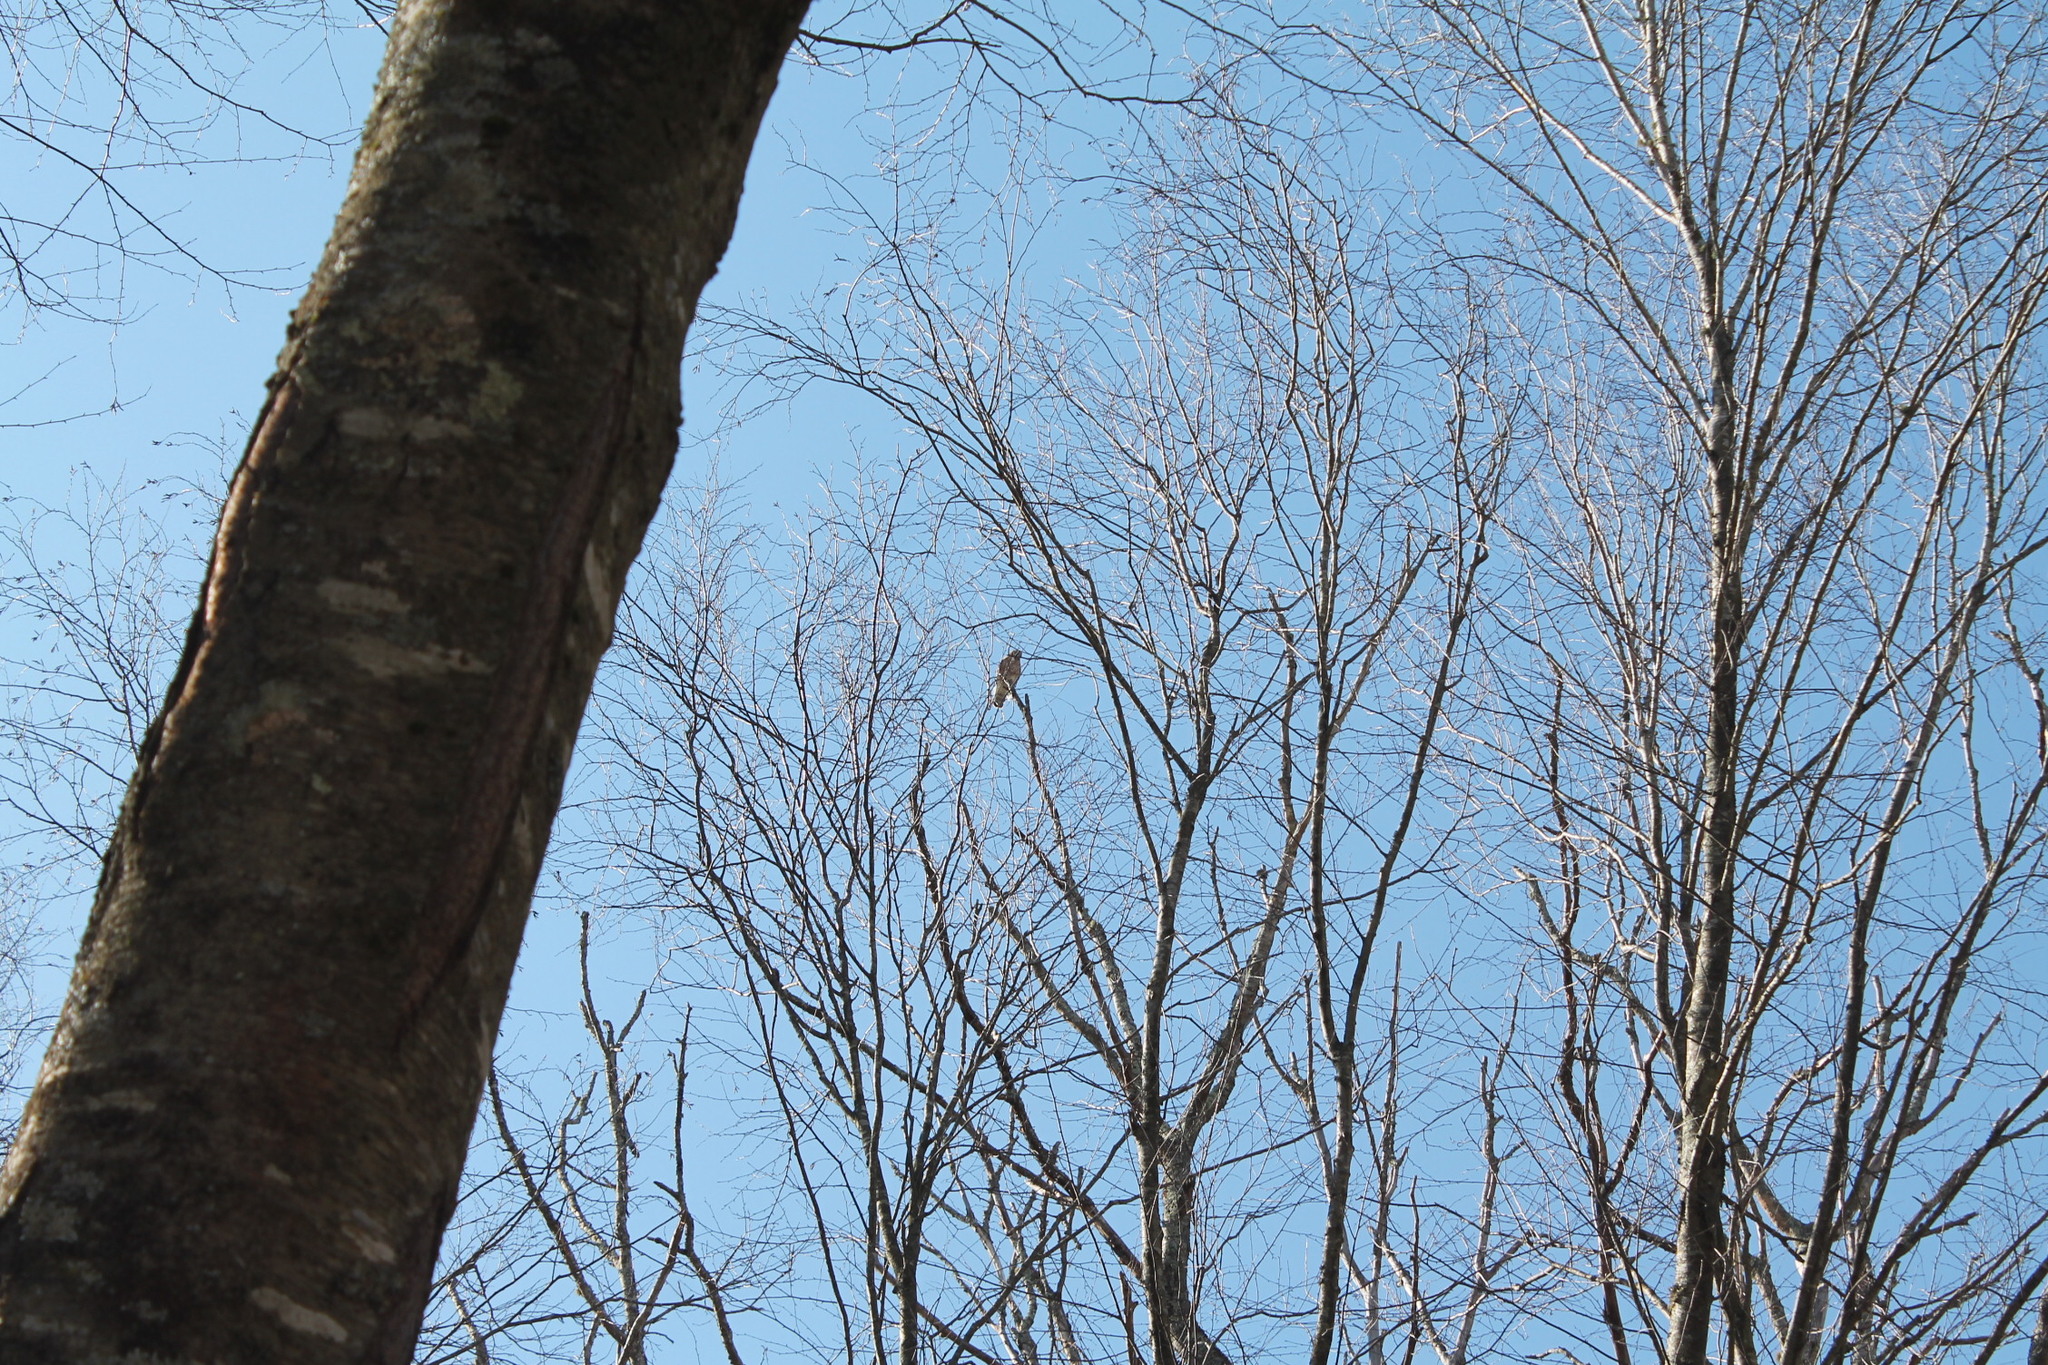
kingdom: Animalia
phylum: Chordata
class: Aves
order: Accipitriformes
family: Accipitridae
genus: Buteo
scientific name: Buteo lineatus
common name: Red-shouldered hawk
